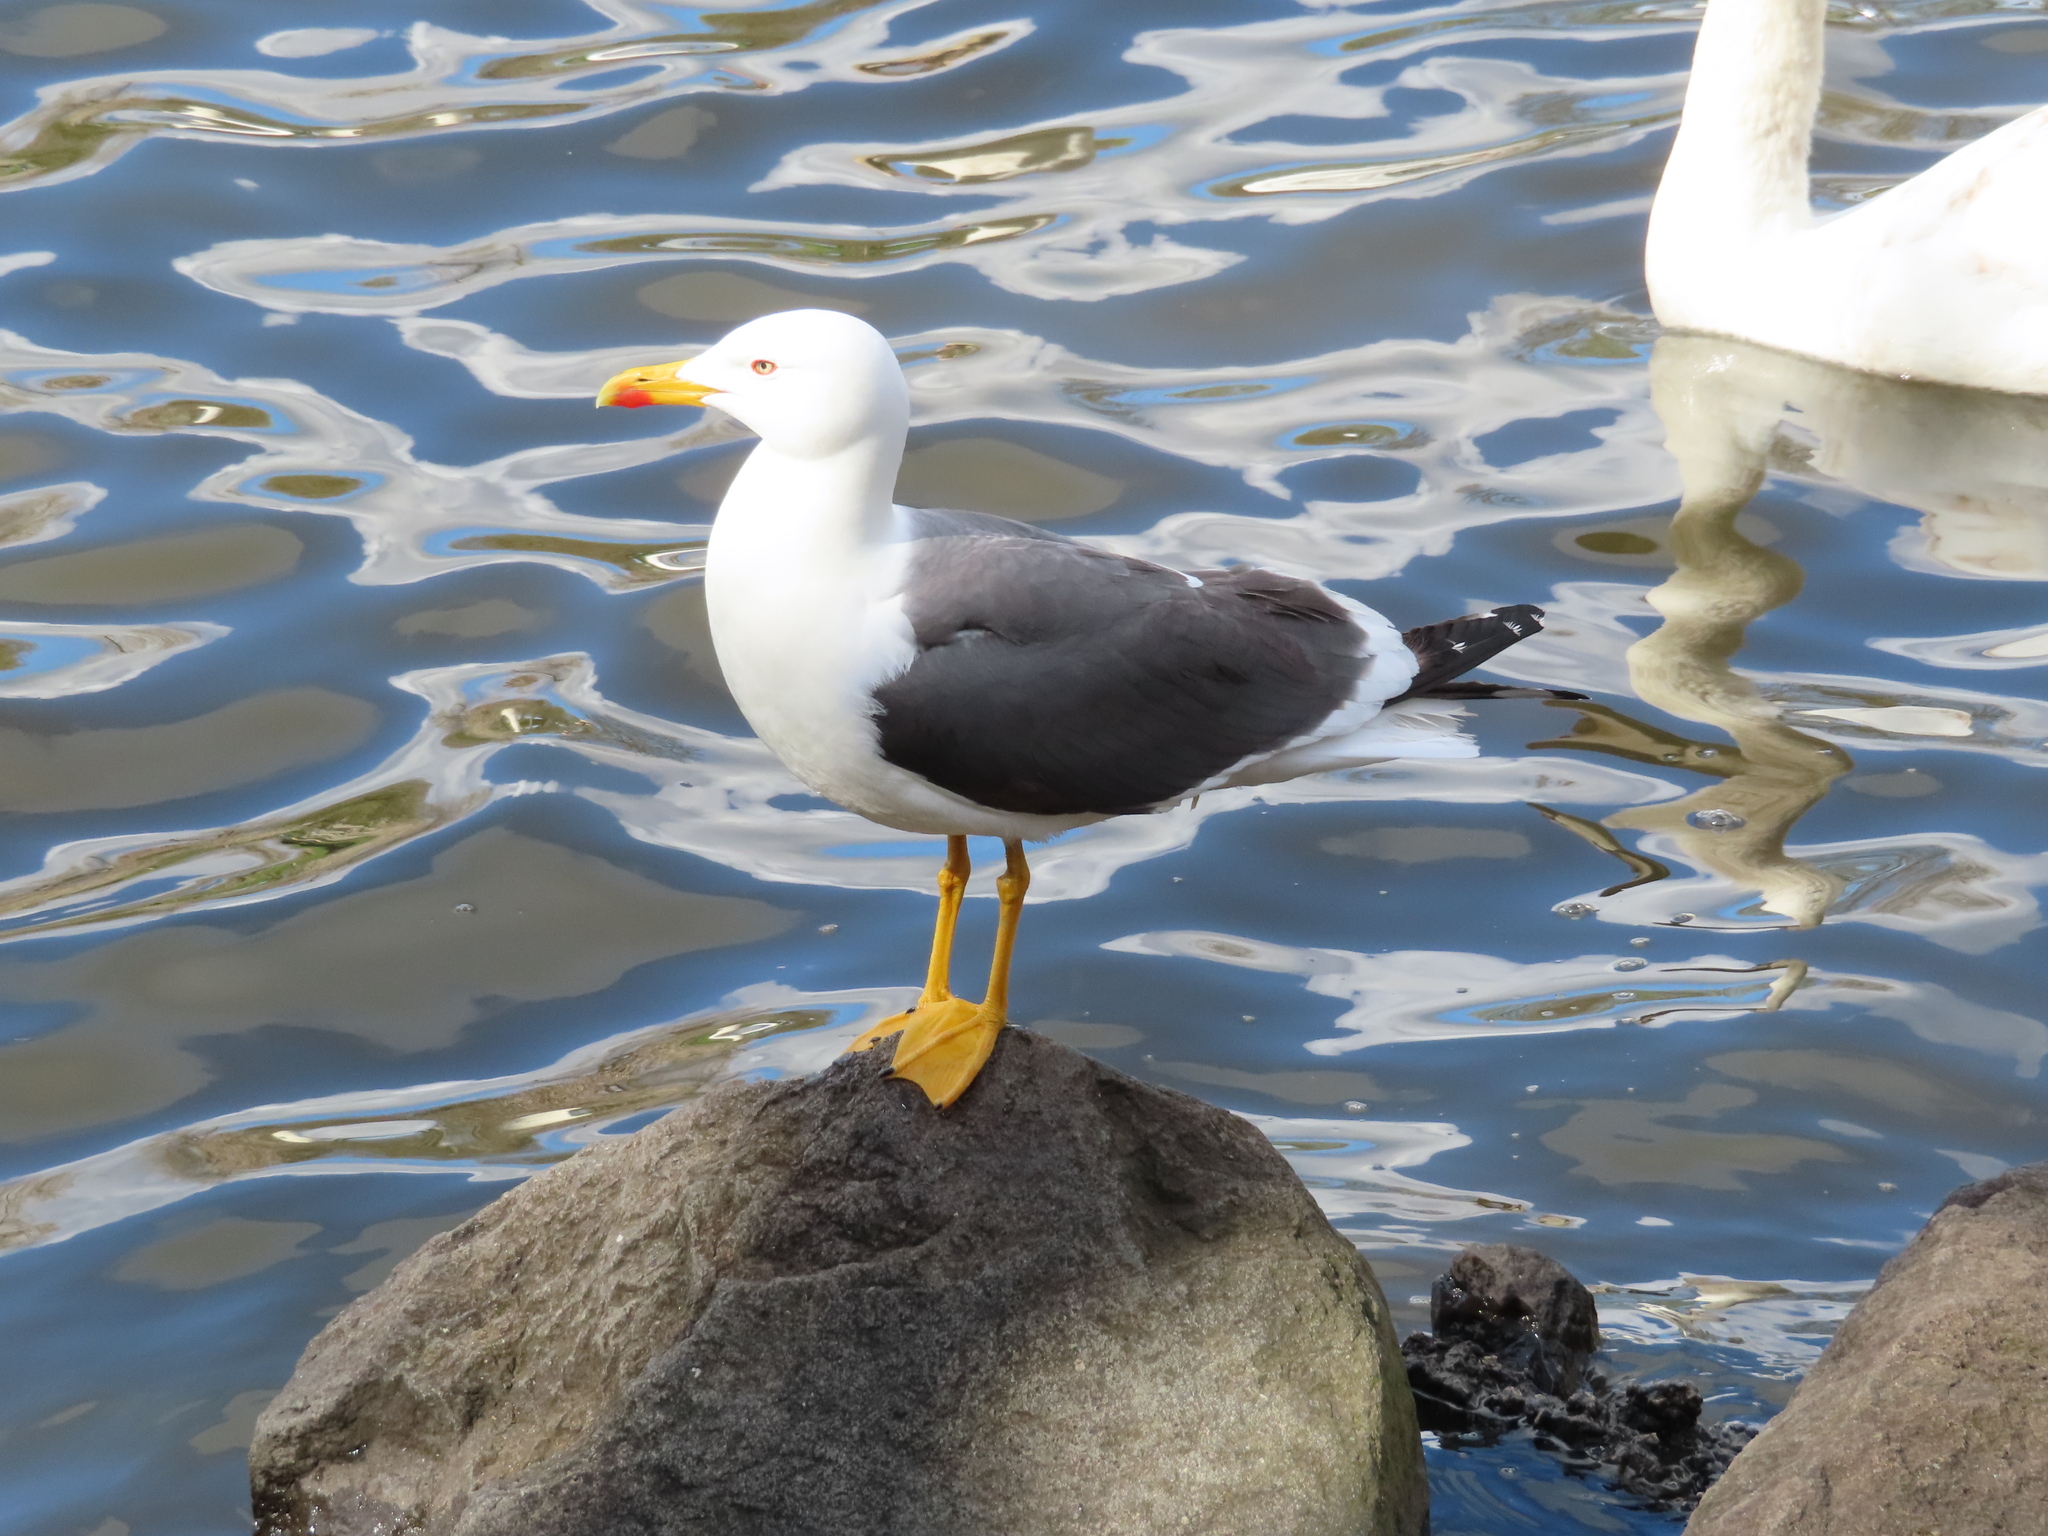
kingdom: Animalia
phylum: Chordata
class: Aves
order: Charadriiformes
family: Laridae
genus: Larus
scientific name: Larus fuscus
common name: Lesser black-backed gull
